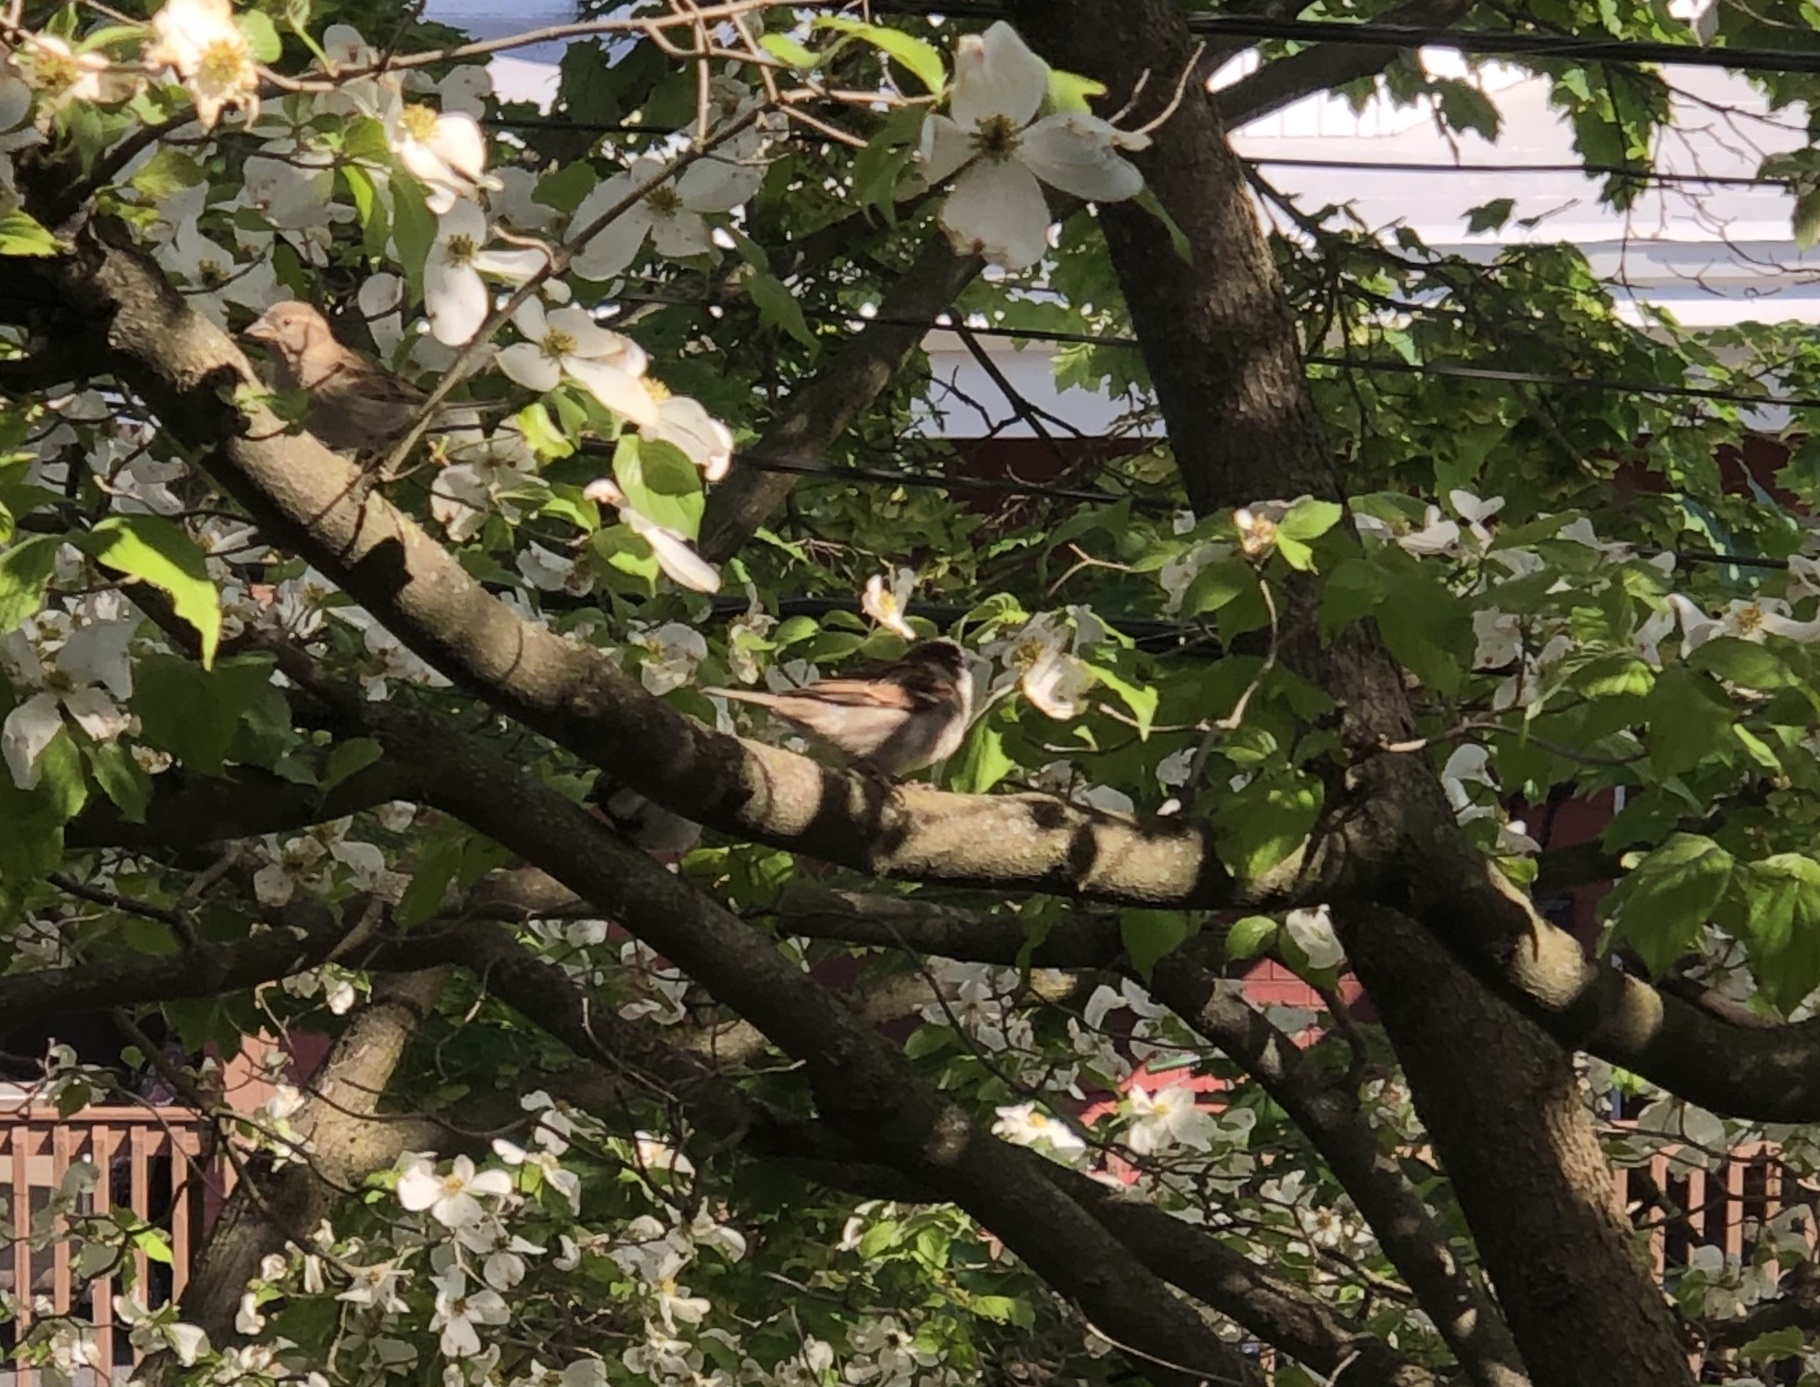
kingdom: Animalia
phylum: Chordata
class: Aves
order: Passeriformes
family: Passeridae
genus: Passer
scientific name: Passer domesticus
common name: House sparrow
